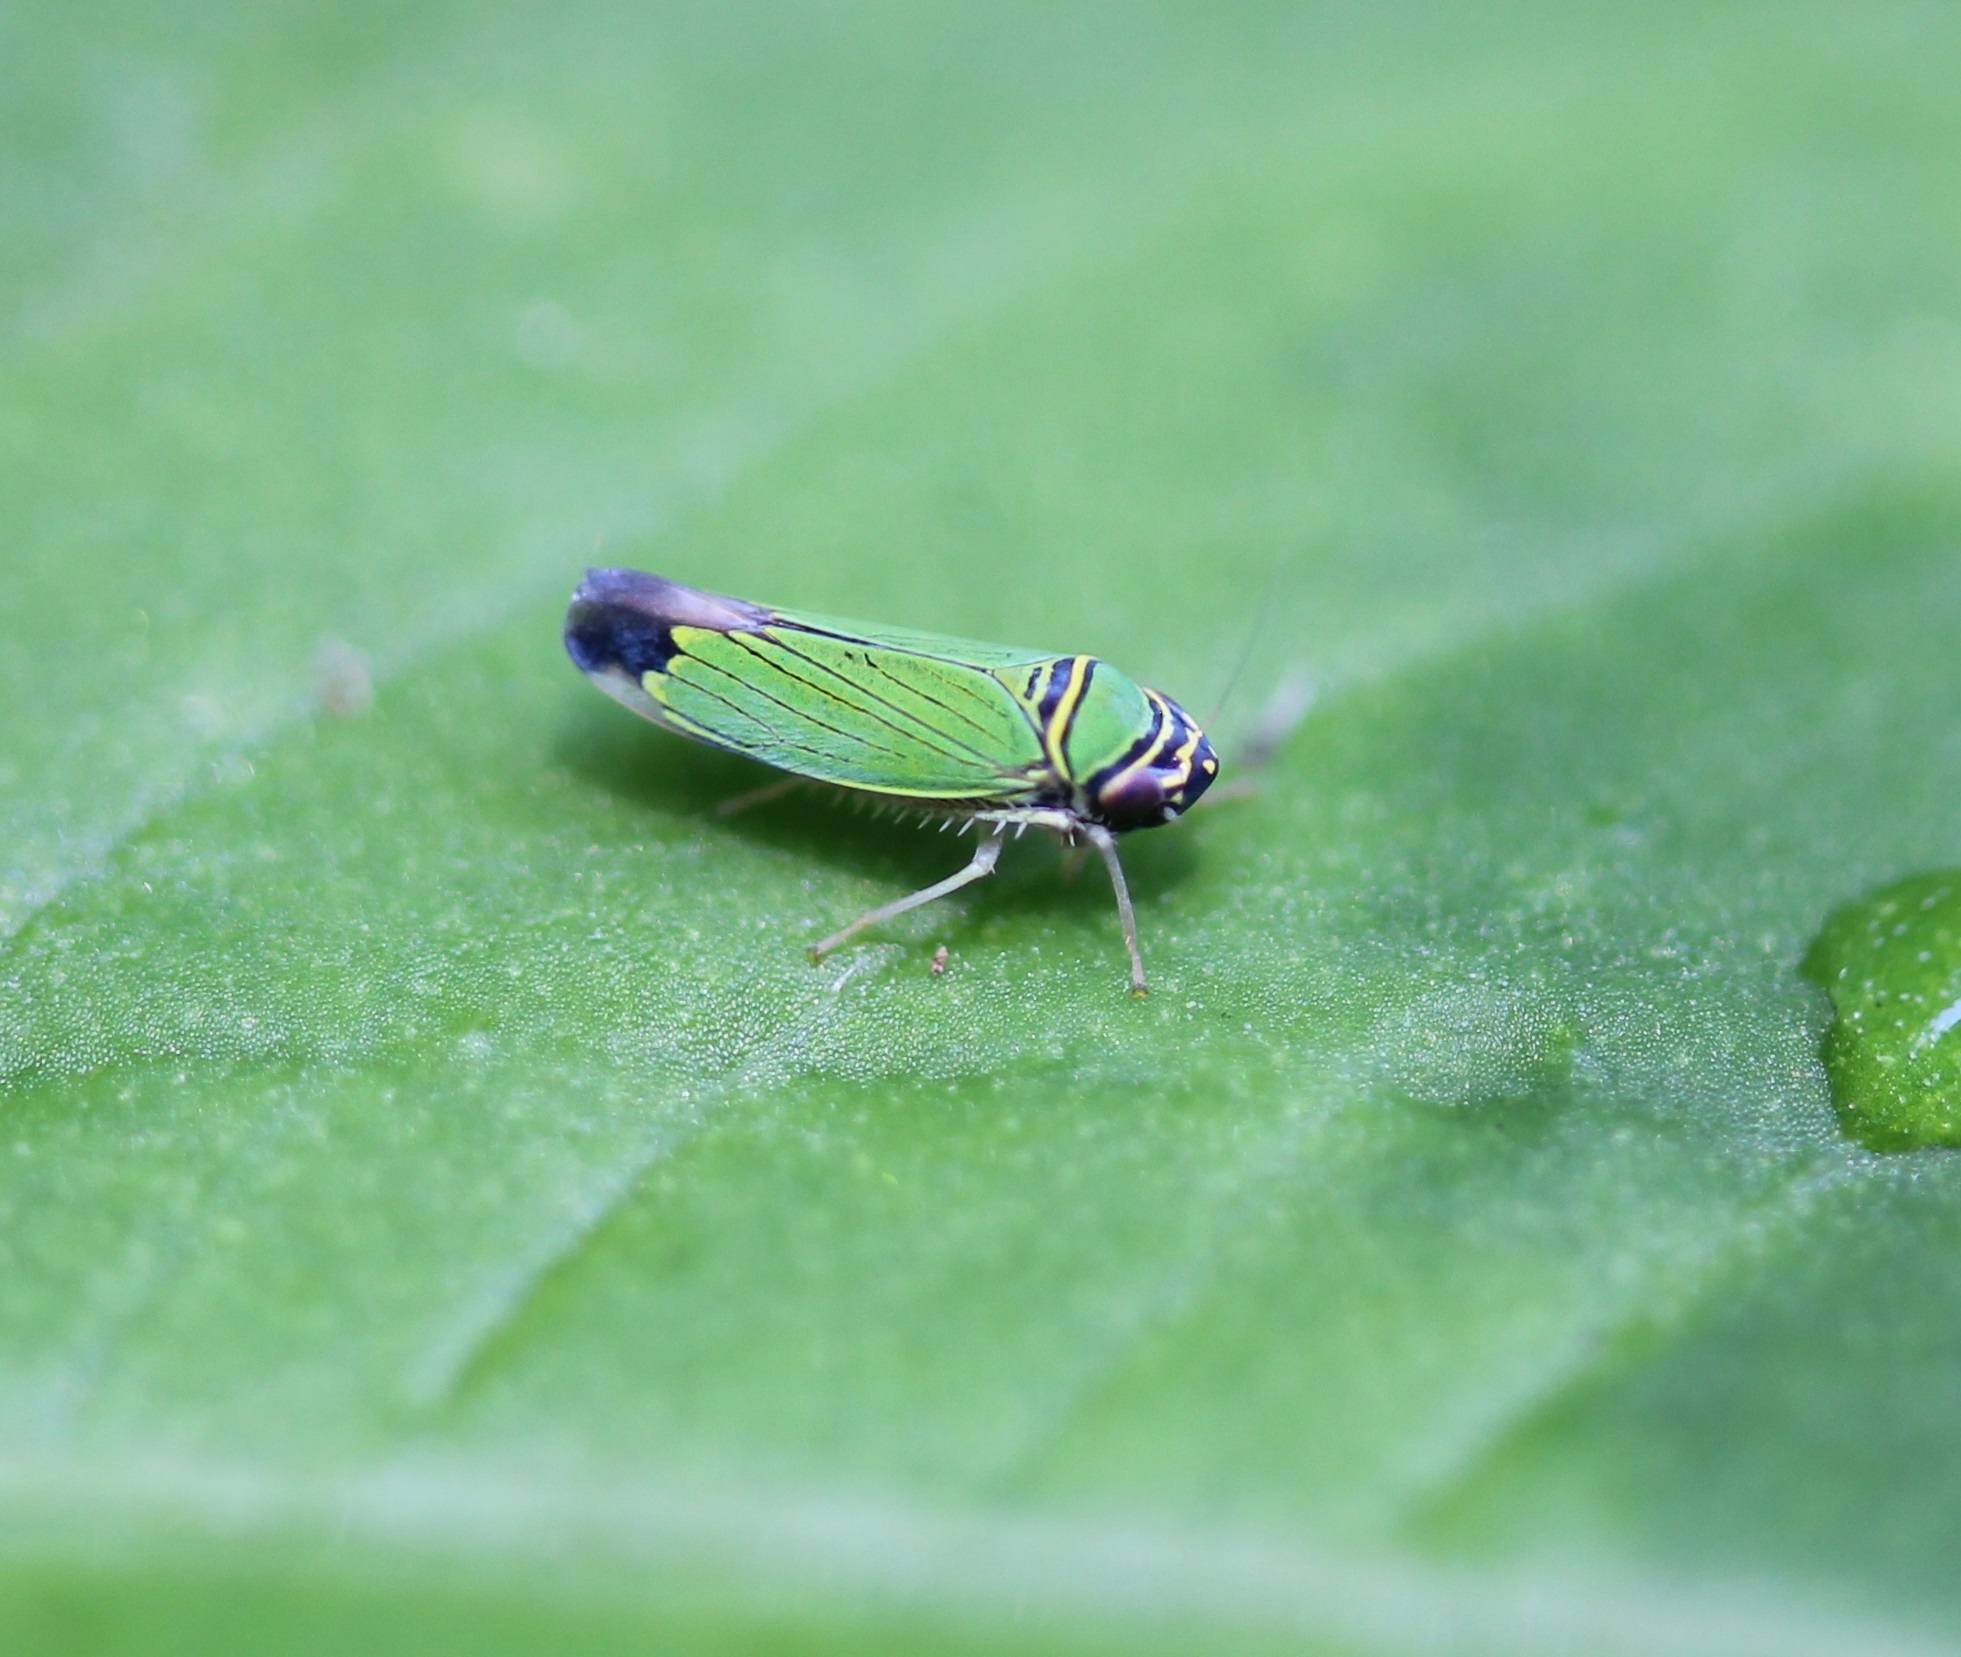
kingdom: Animalia
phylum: Arthropoda
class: Insecta
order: Hemiptera
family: Cicadellidae
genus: Tylozygus
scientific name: Tylozygus geometricus
